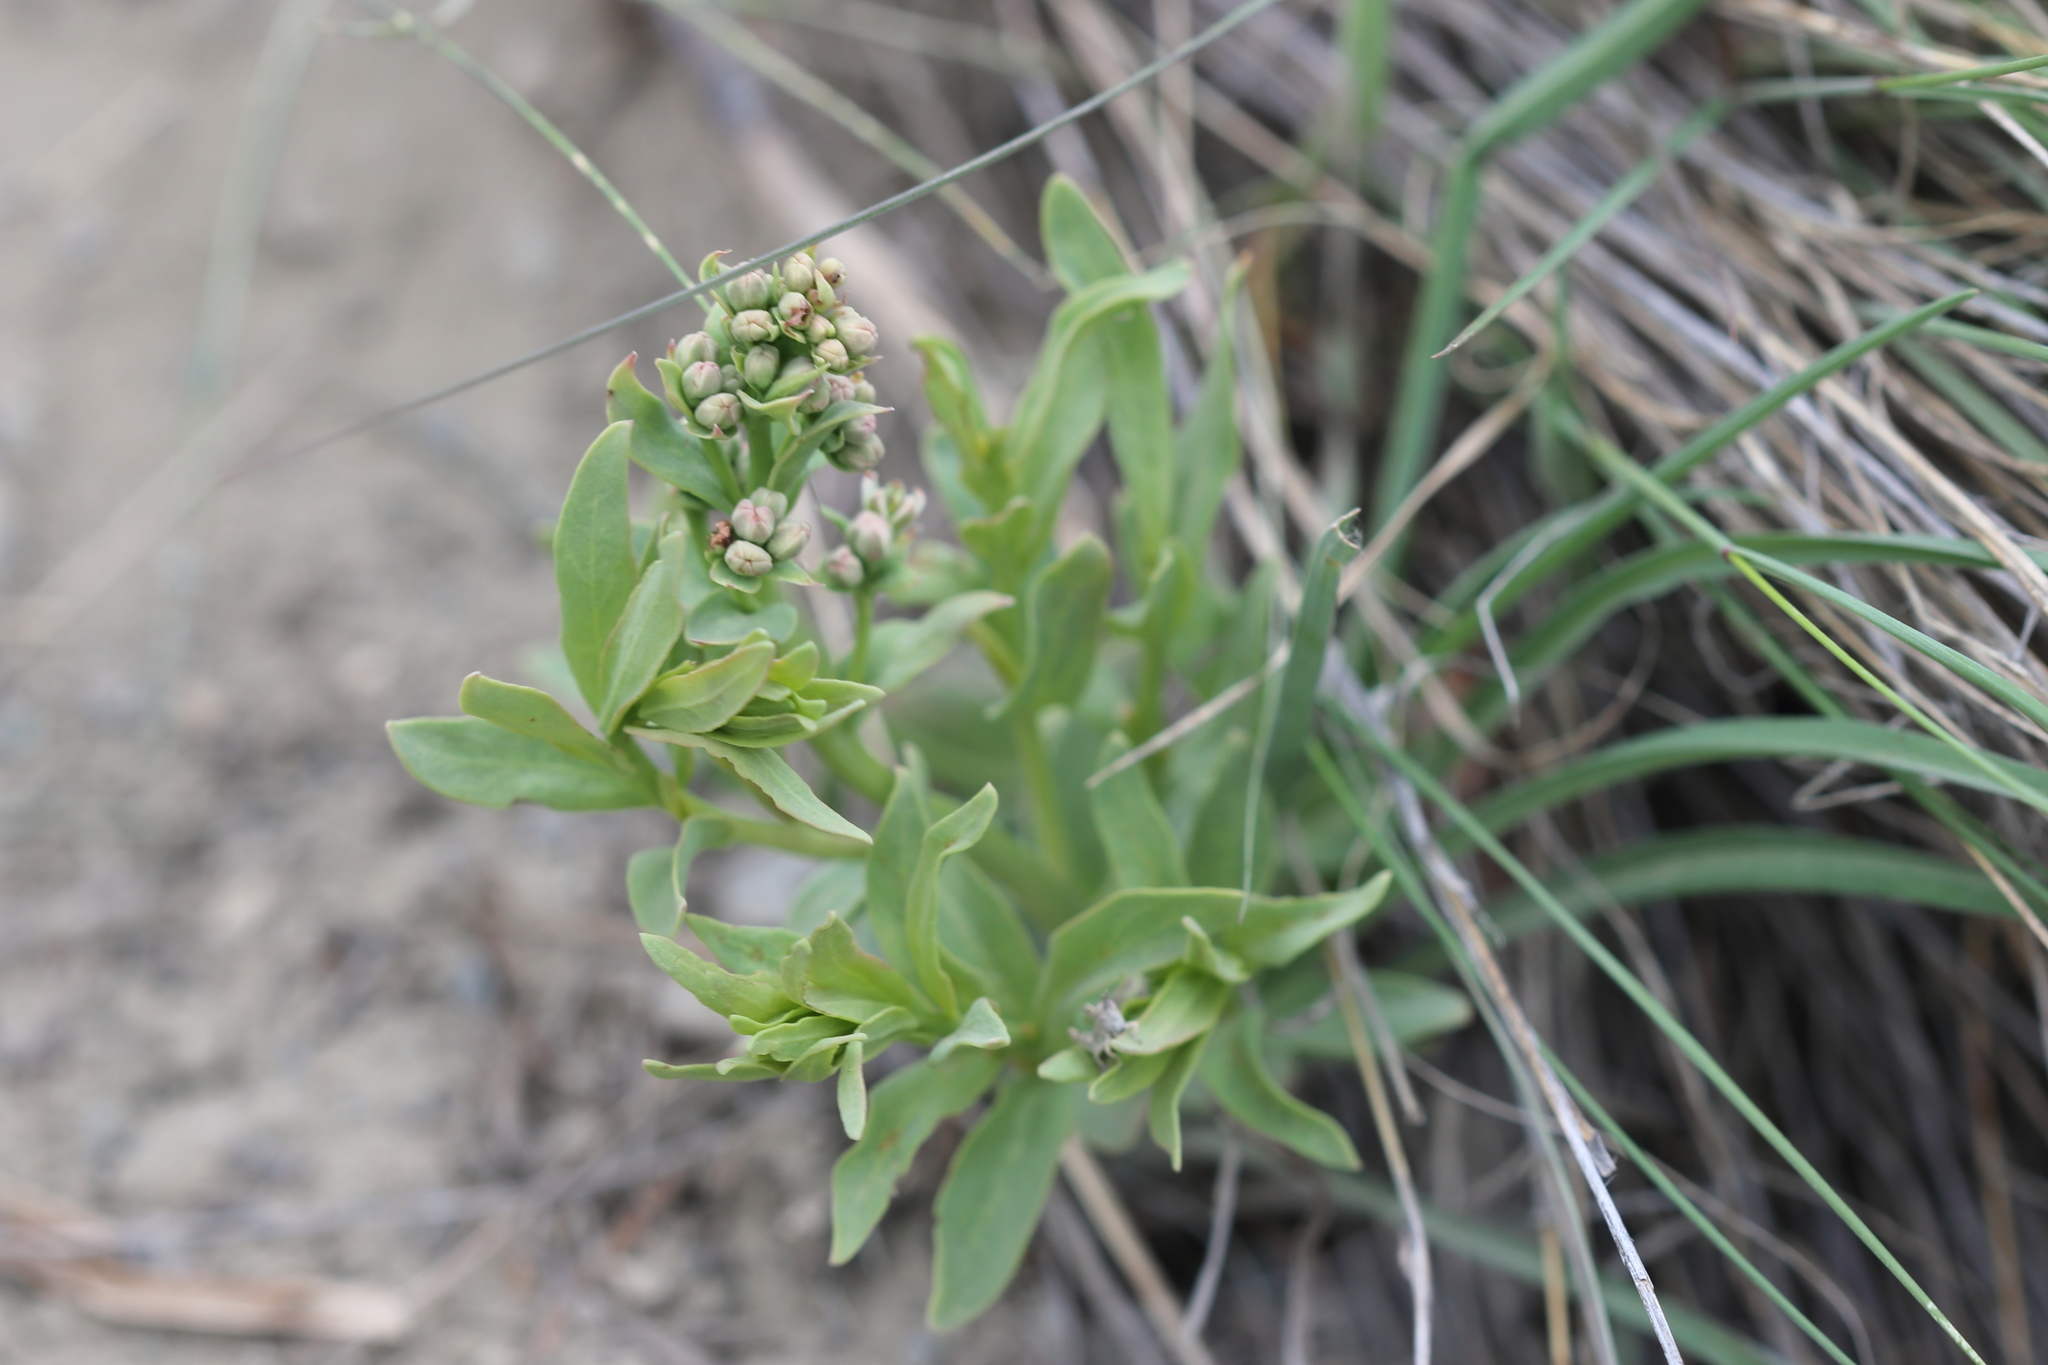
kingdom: Plantae
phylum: Tracheophyta
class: Magnoliopsida
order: Santalales
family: Comandraceae
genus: Comandra
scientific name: Comandra umbellata
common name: Bastard toadflax
